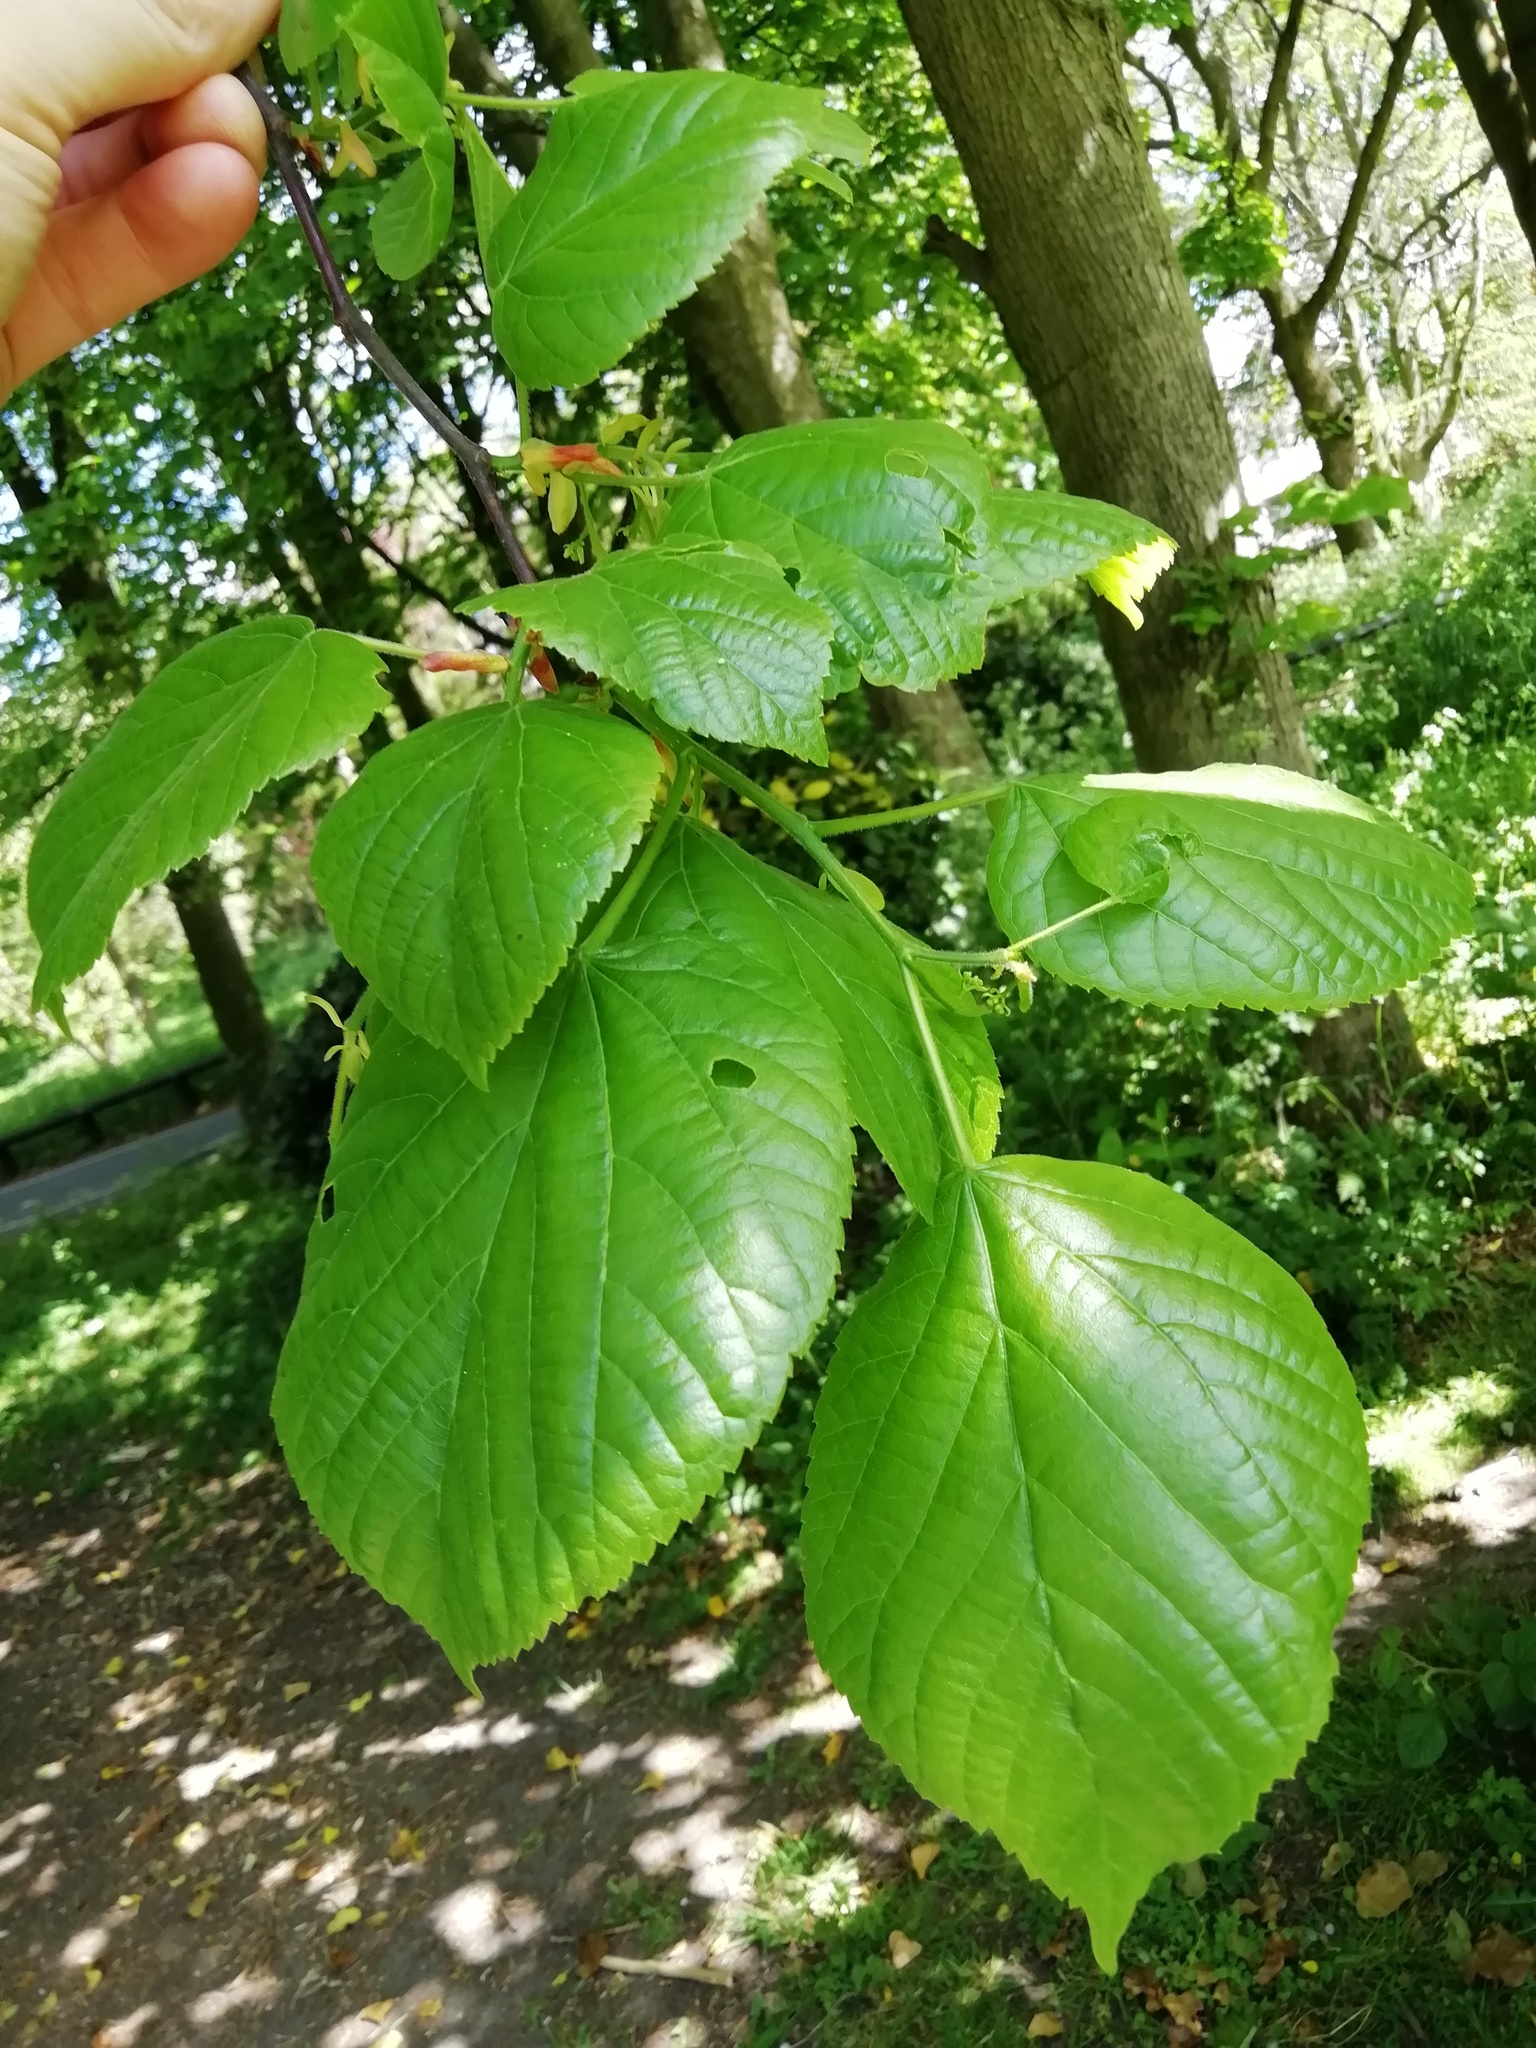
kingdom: Plantae
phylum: Tracheophyta
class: Magnoliopsida
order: Malvales
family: Malvaceae
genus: Tilia
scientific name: Tilia europaea
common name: European linden
